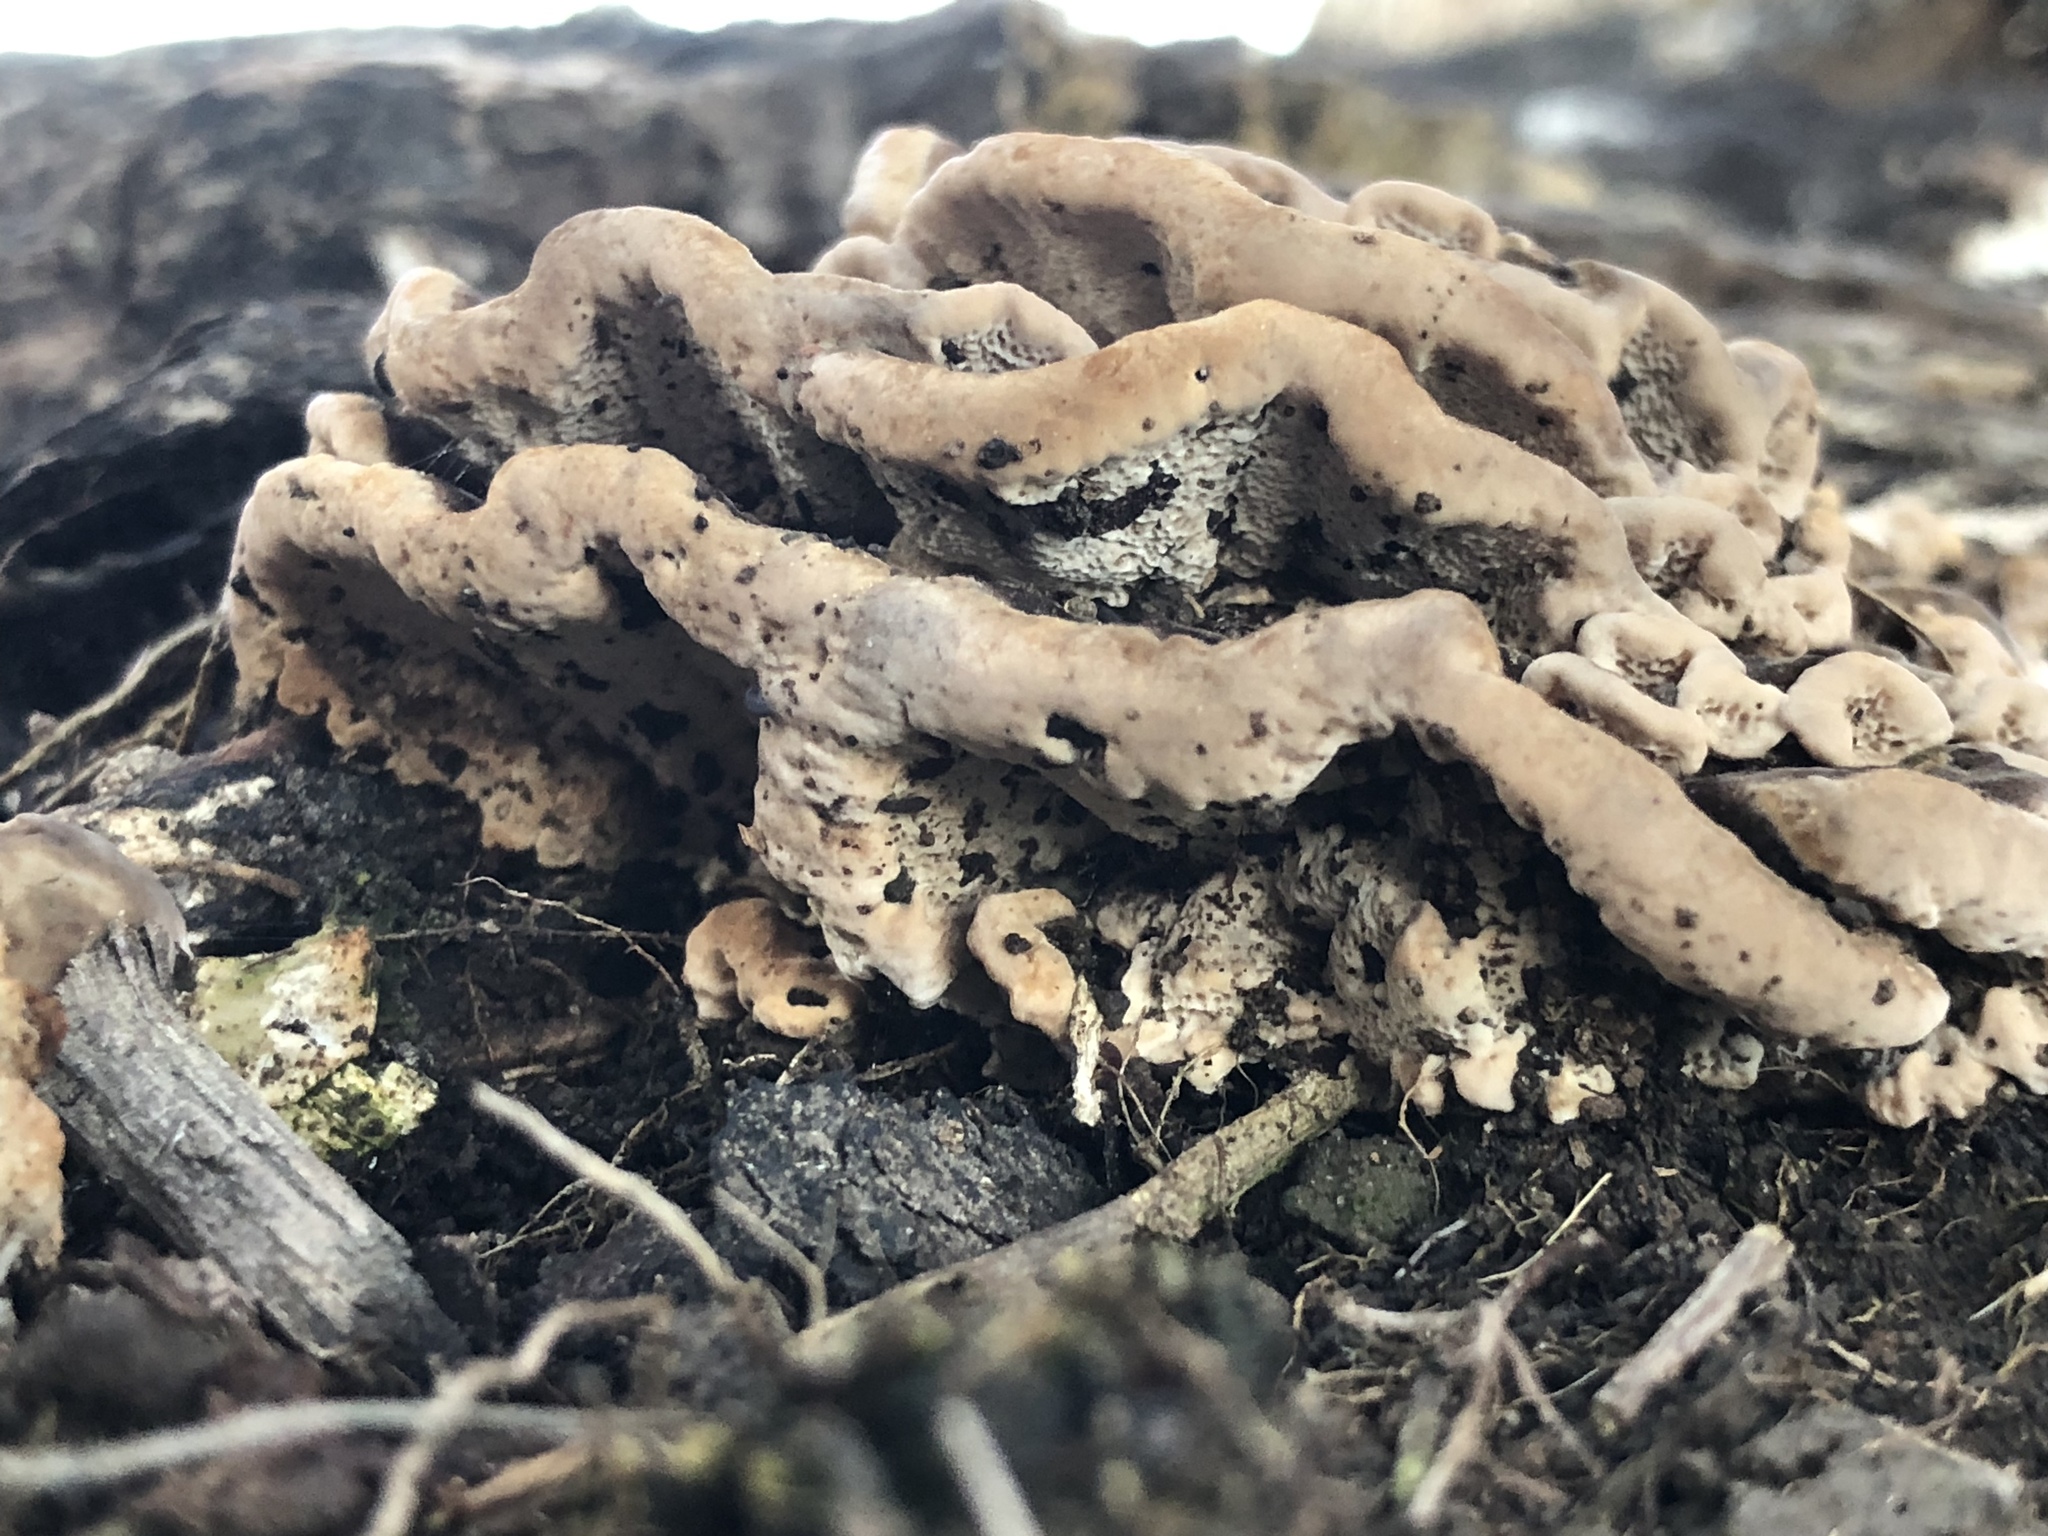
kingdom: Fungi
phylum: Basidiomycota
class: Agaricomycetes
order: Polyporales
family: Polyporaceae
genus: Trametes
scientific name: Trametes versicolor
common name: Turkeytail
